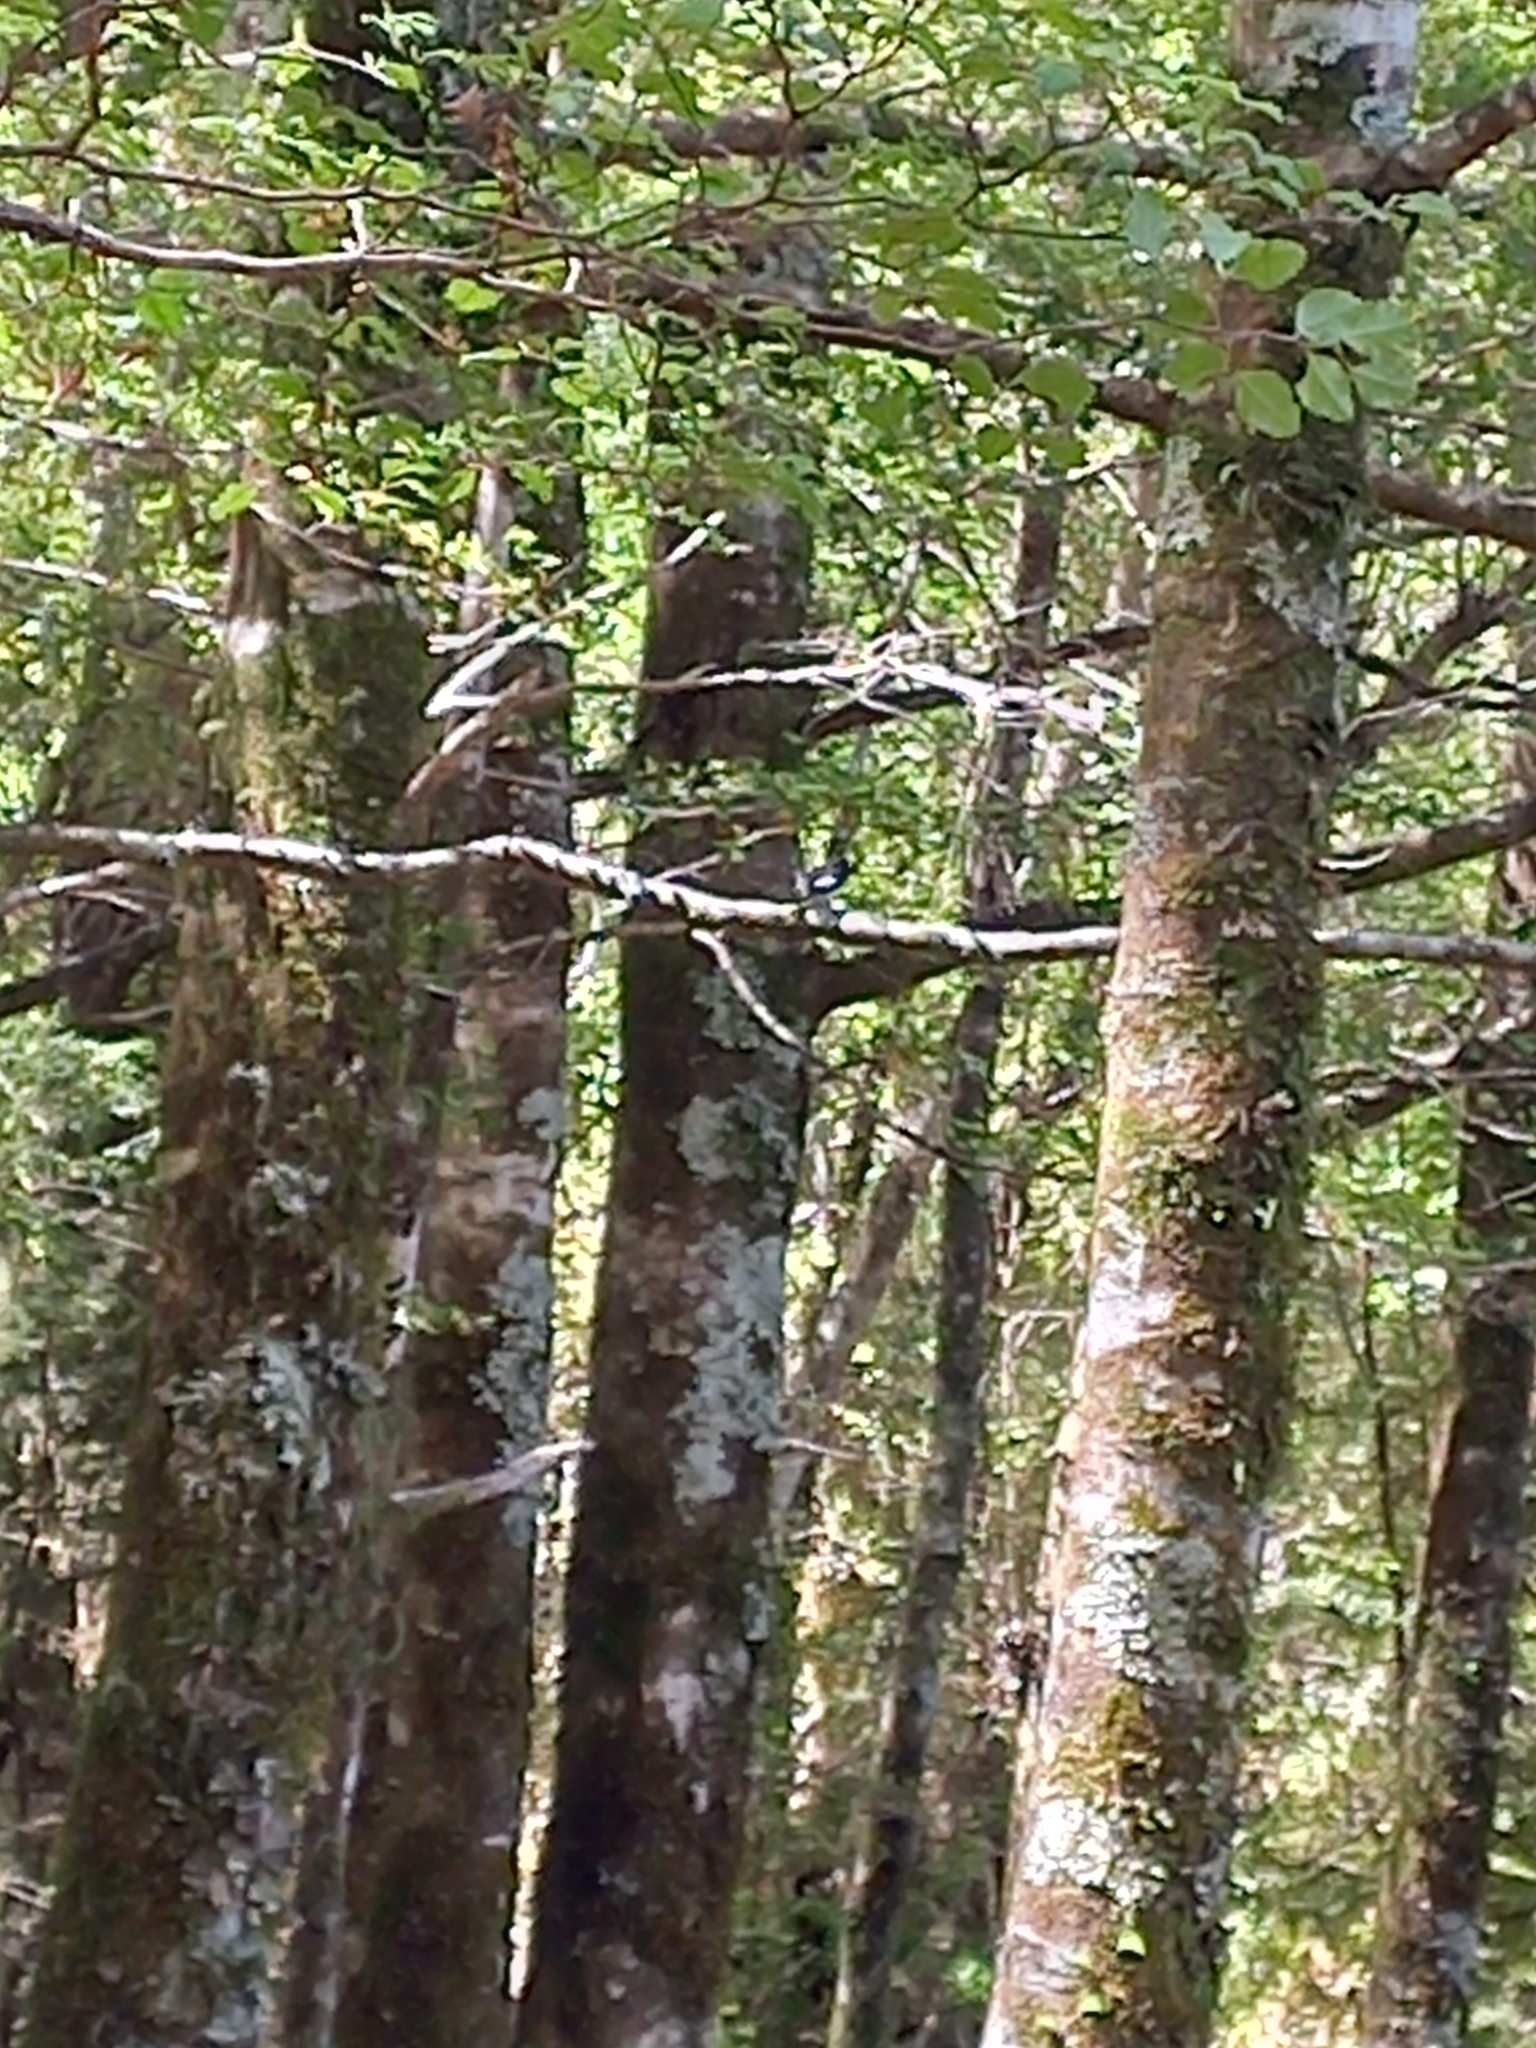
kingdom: Animalia
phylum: Chordata
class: Aves
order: Passeriformes
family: Petroicidae
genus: Petroica
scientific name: Petroica macrocephala
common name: Tomtit
